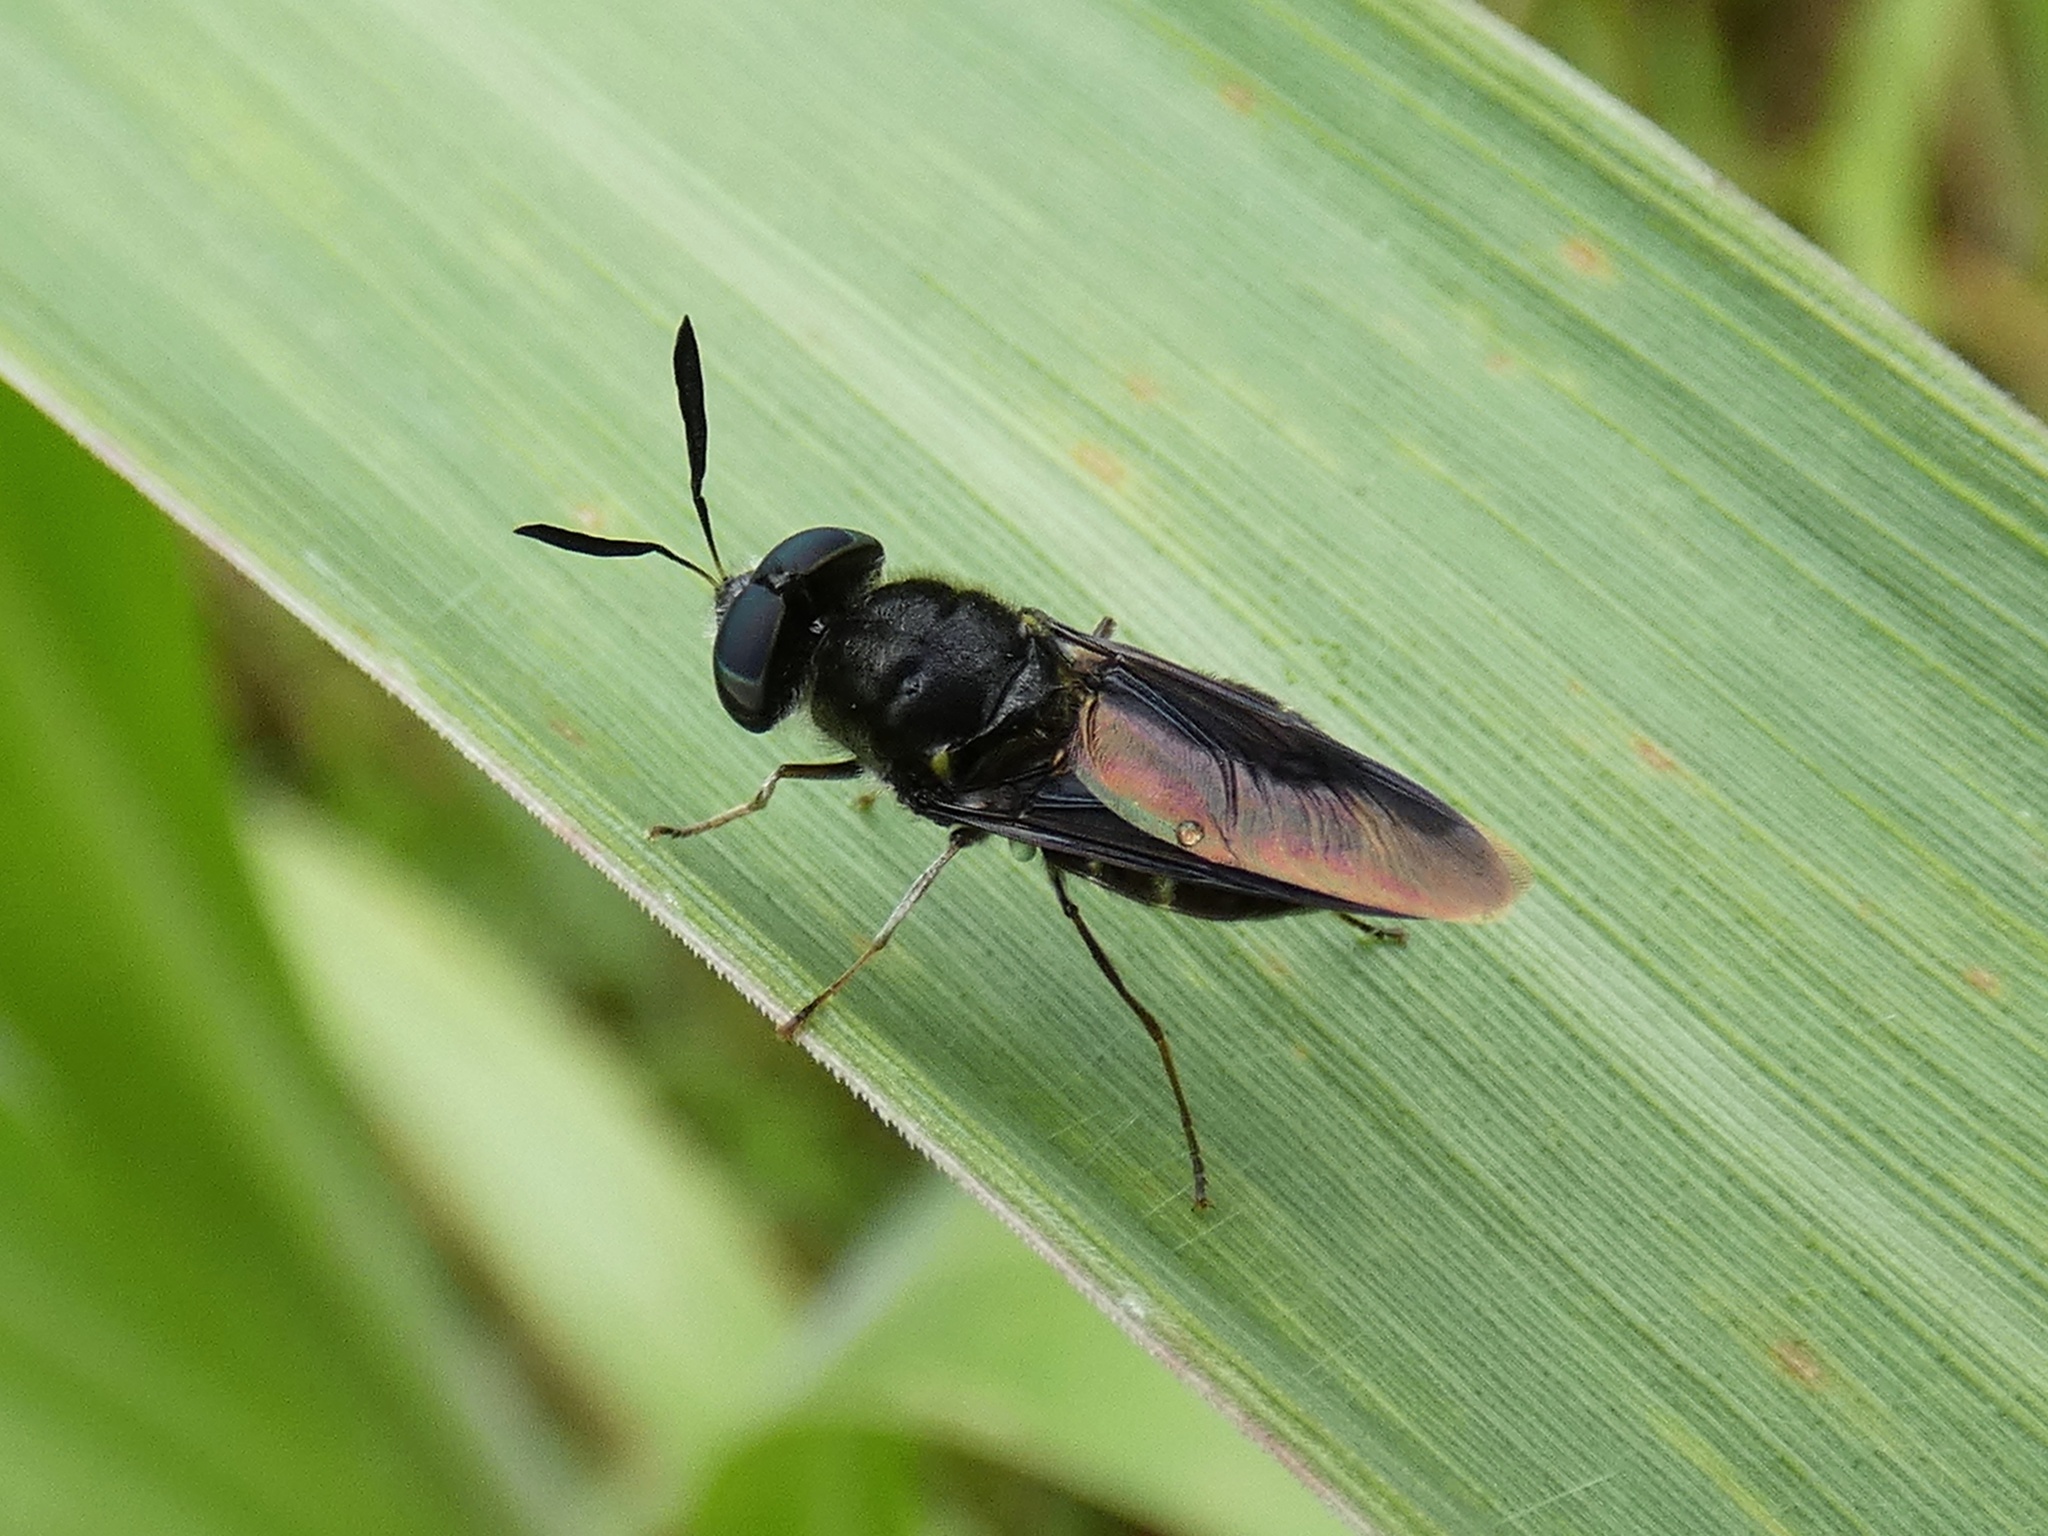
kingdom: Animalia
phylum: Arthropoda
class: Insecta
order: Diptera
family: Stratiomyidae
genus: Hoplitimyia
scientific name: Hoplitimyia subalba
